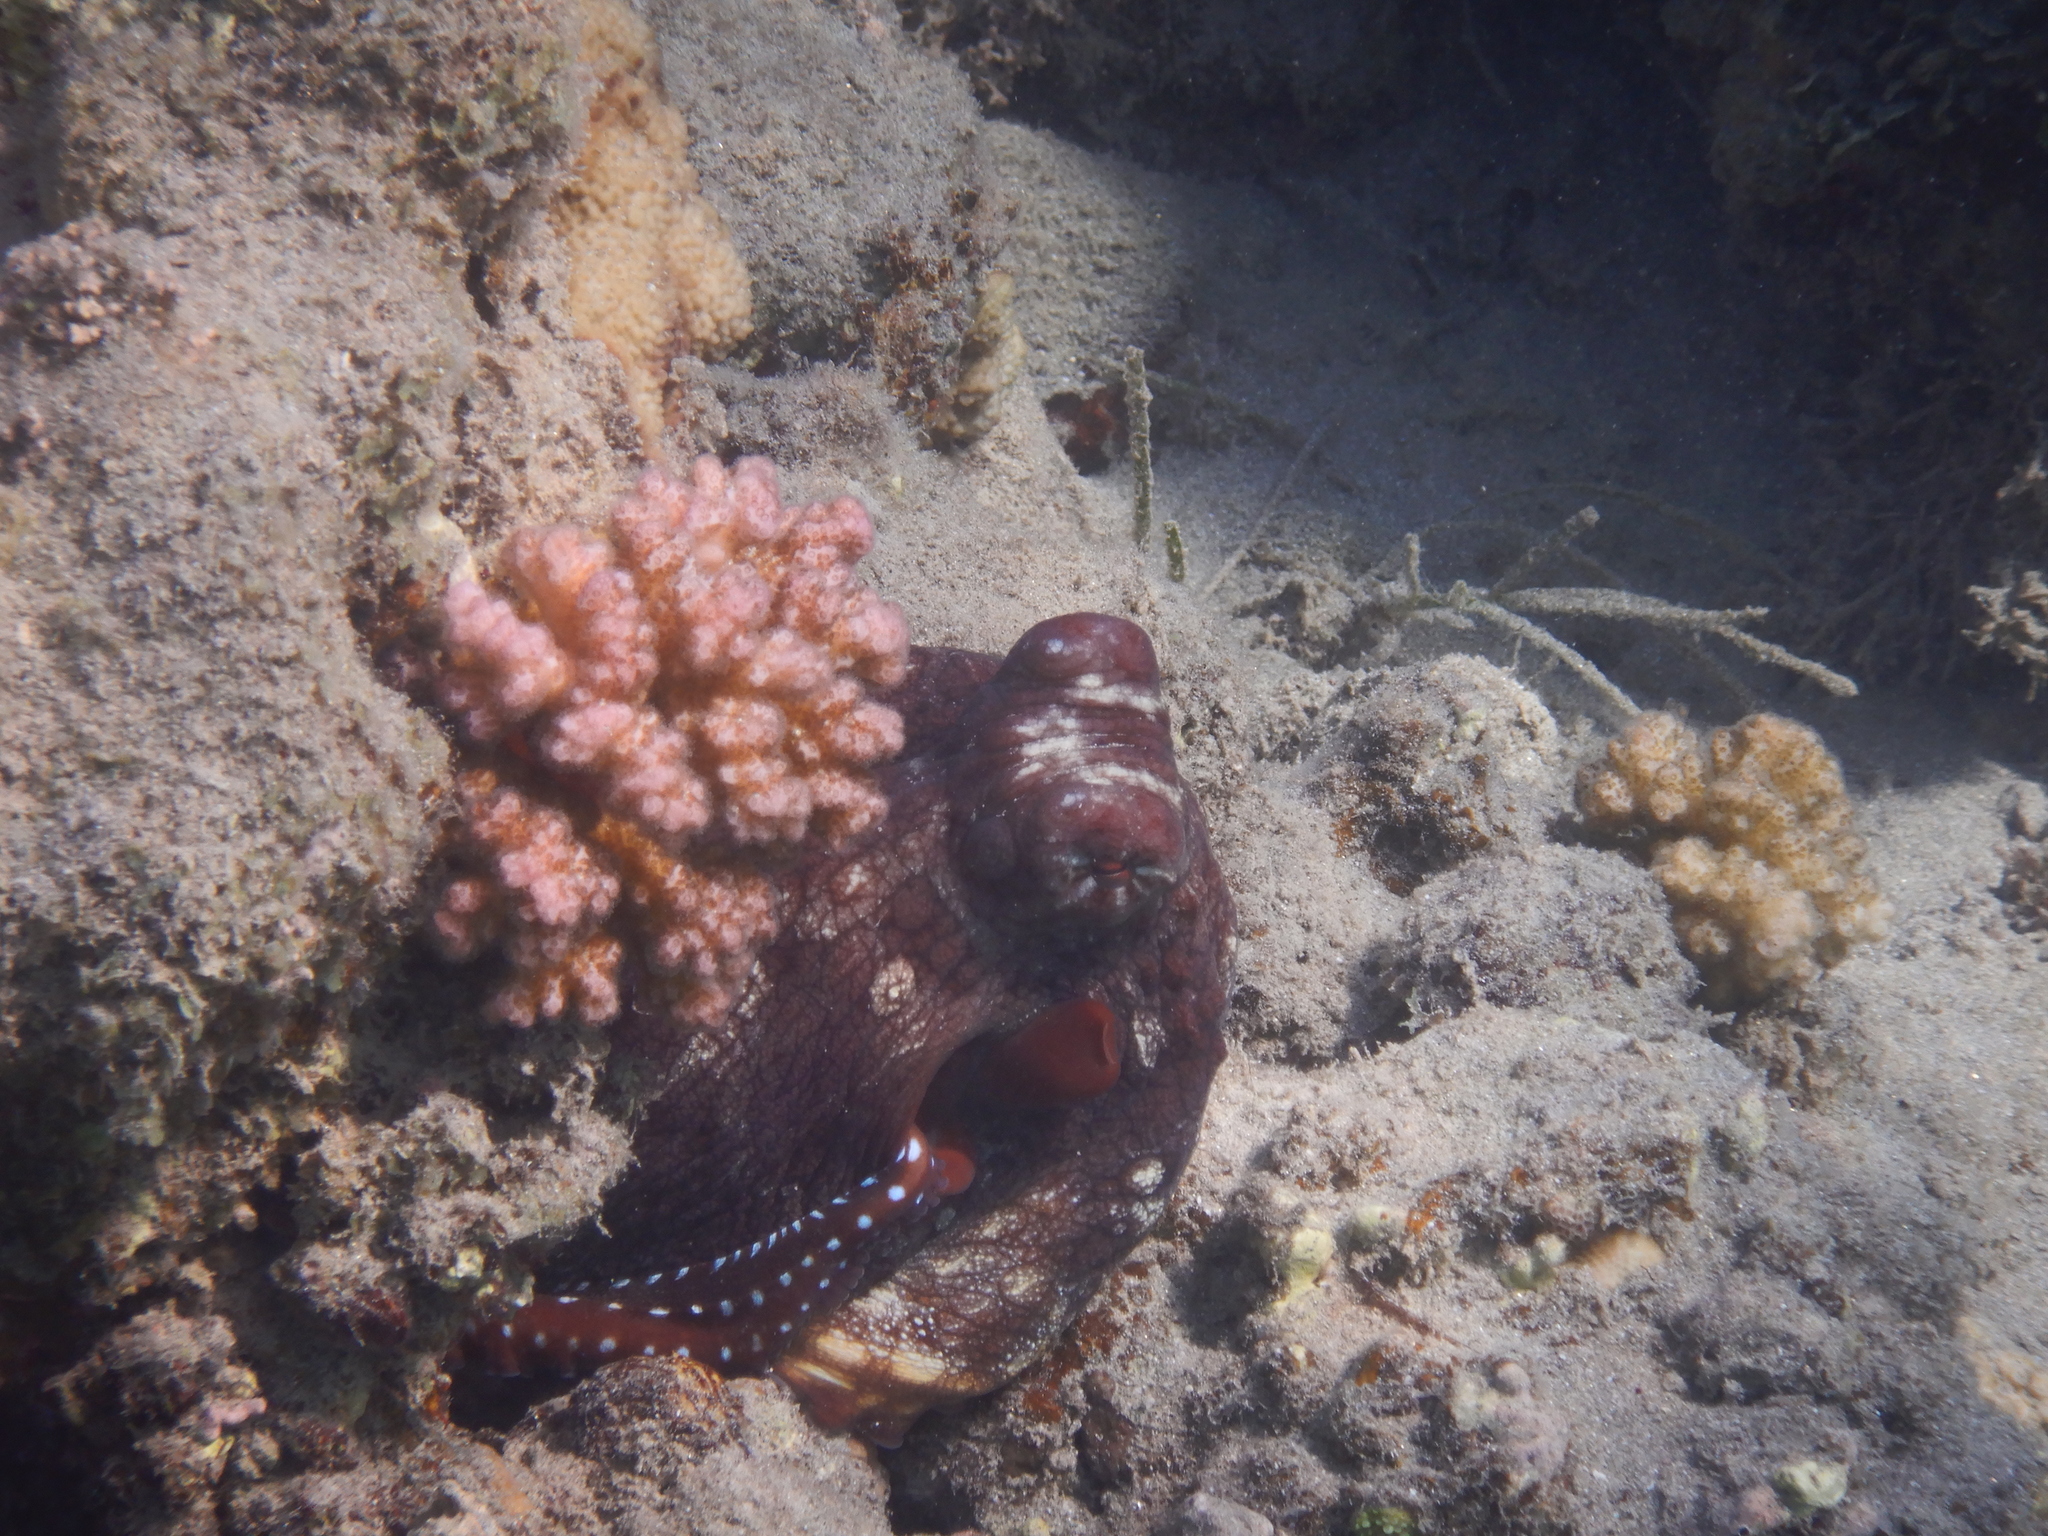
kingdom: Animalia
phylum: Mollusca
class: Cephalopoda
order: Octopoda
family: Octopodidae
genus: Octopus
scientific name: Octopus cyanea
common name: Cyane's octopus
